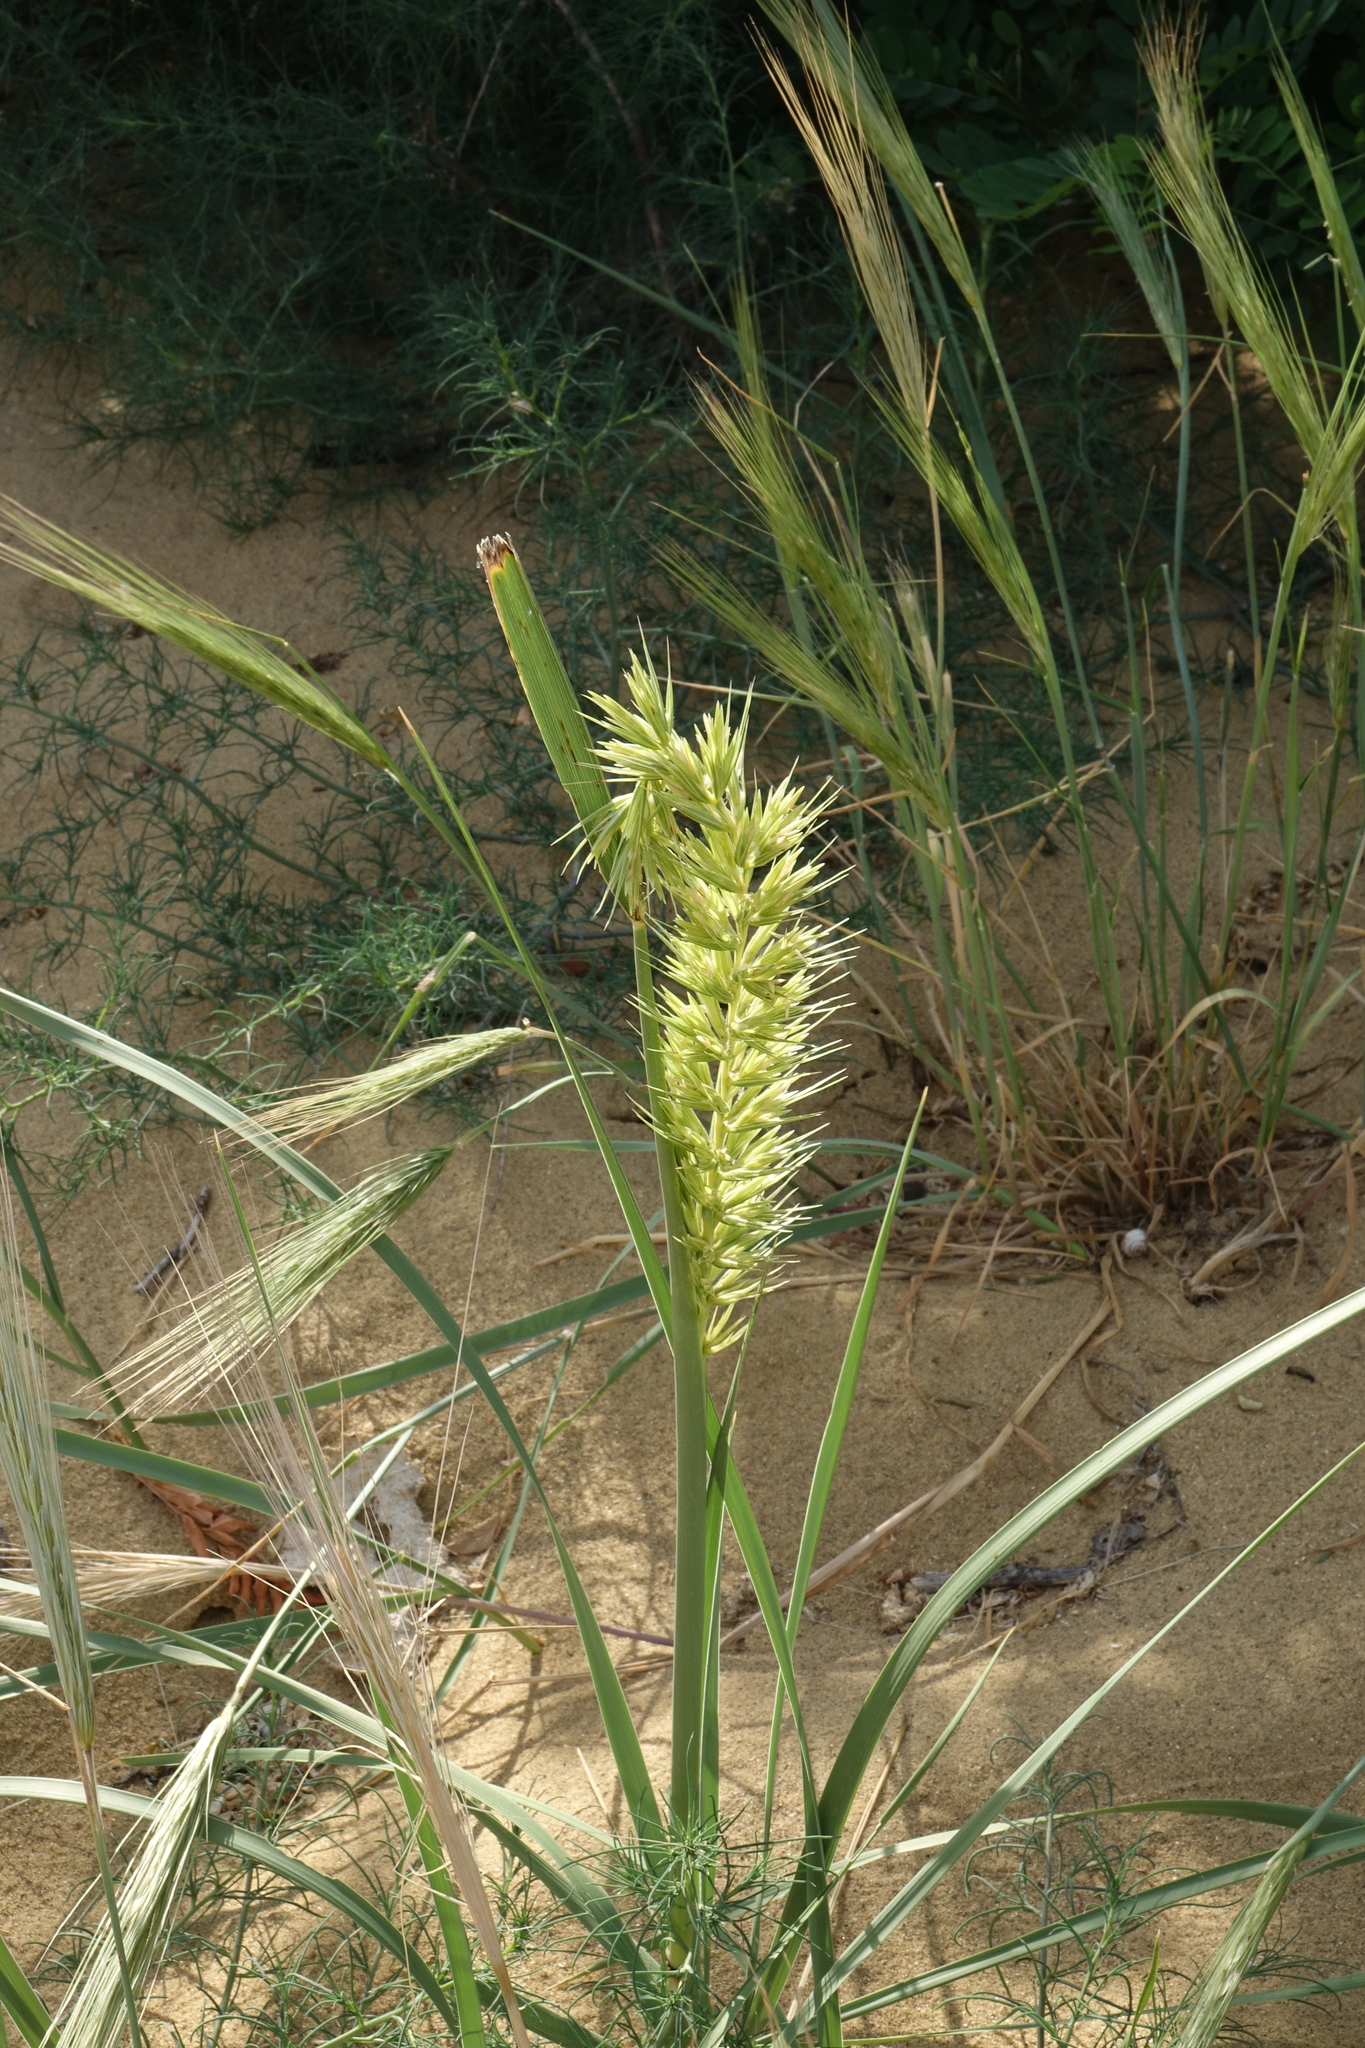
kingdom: Plantae
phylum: Tracheophyta
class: Liliopsida
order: Poales
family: Poaceae
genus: Leymus
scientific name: Leymus racemosus
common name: Mammoth wildrye
